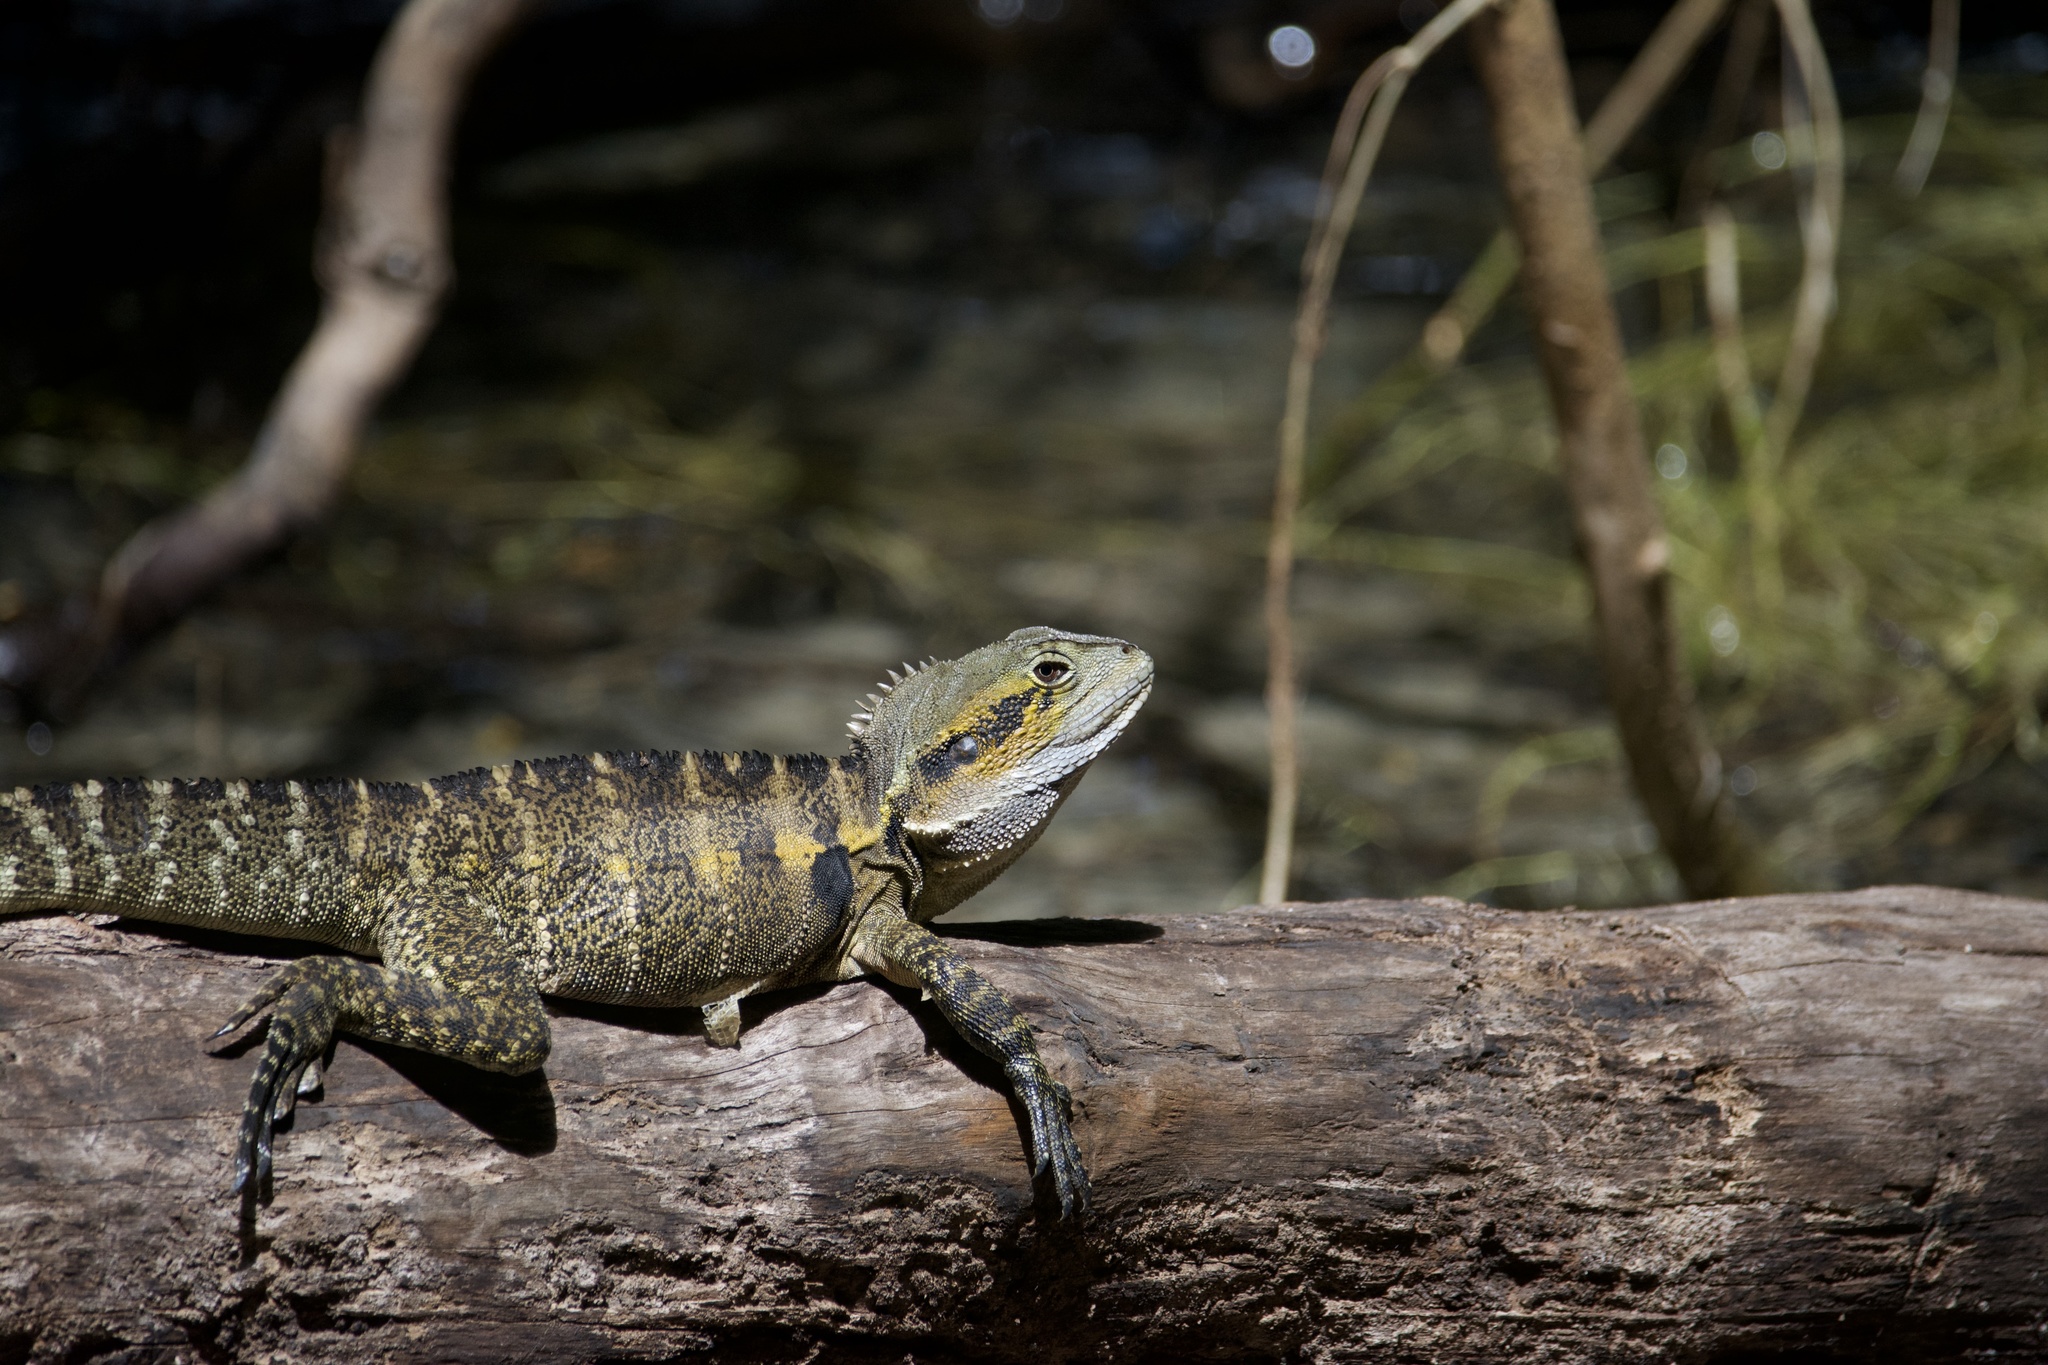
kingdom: Animalia
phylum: Chordata
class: Squamata
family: Agamidae
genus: Intellagama
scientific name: Intellagama lesueurii
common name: Eastern water dragon
